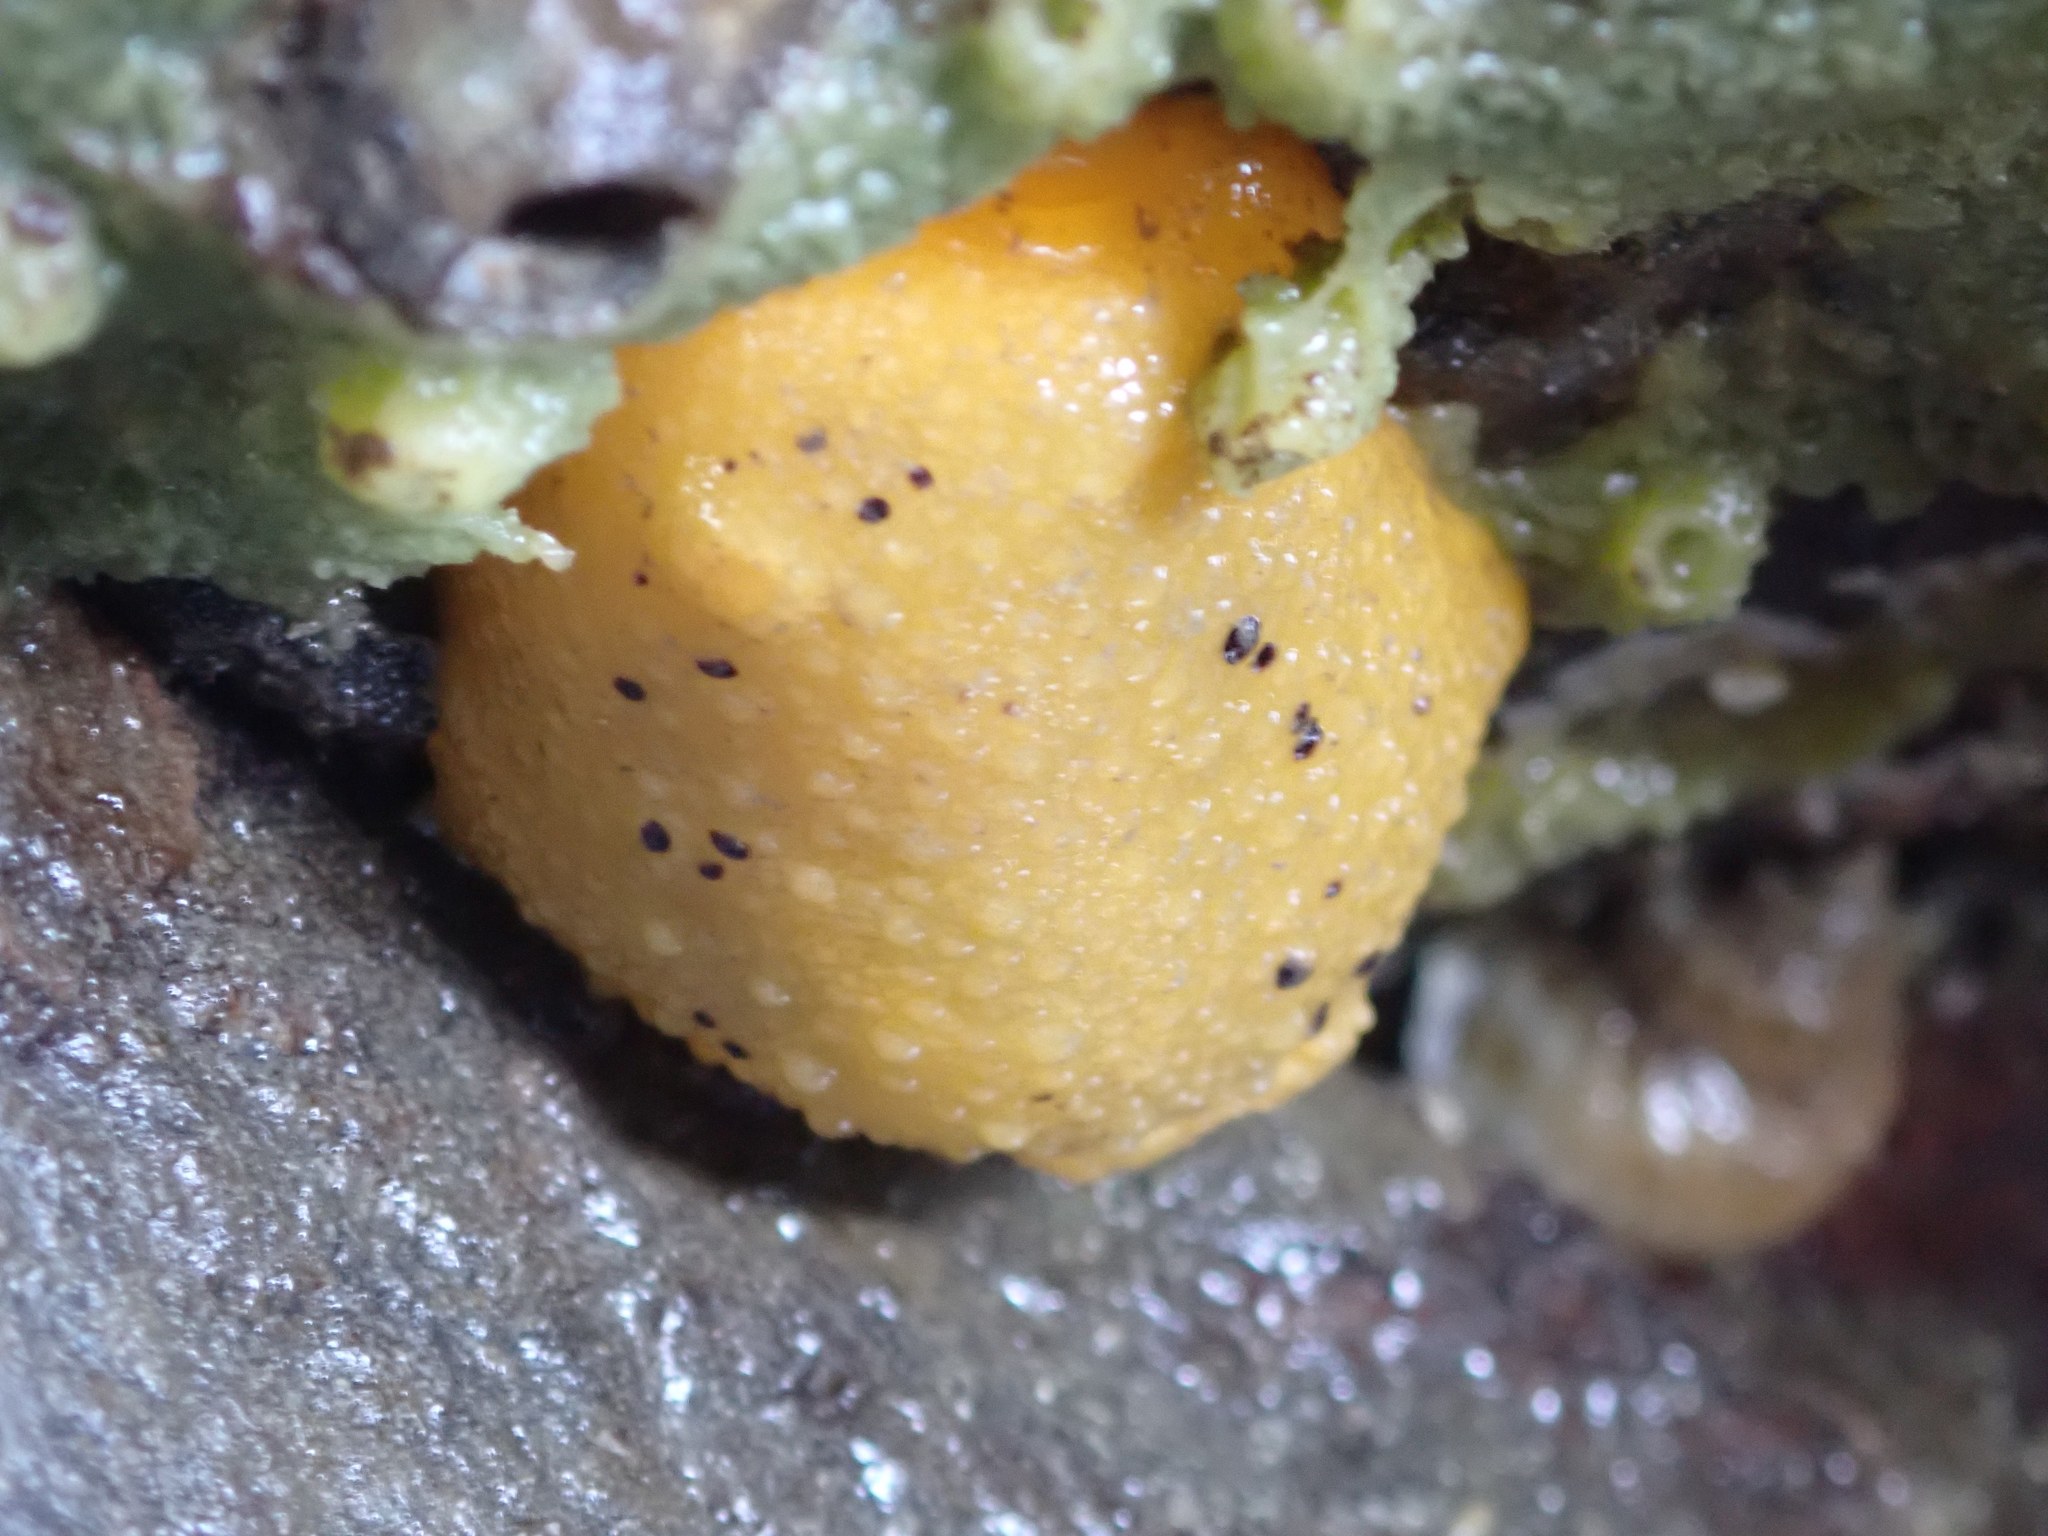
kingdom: Animalia
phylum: Mollusca
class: Gastropoda
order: Nudibranchia
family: Dorididae
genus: Doris
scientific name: Doris montereyensis
